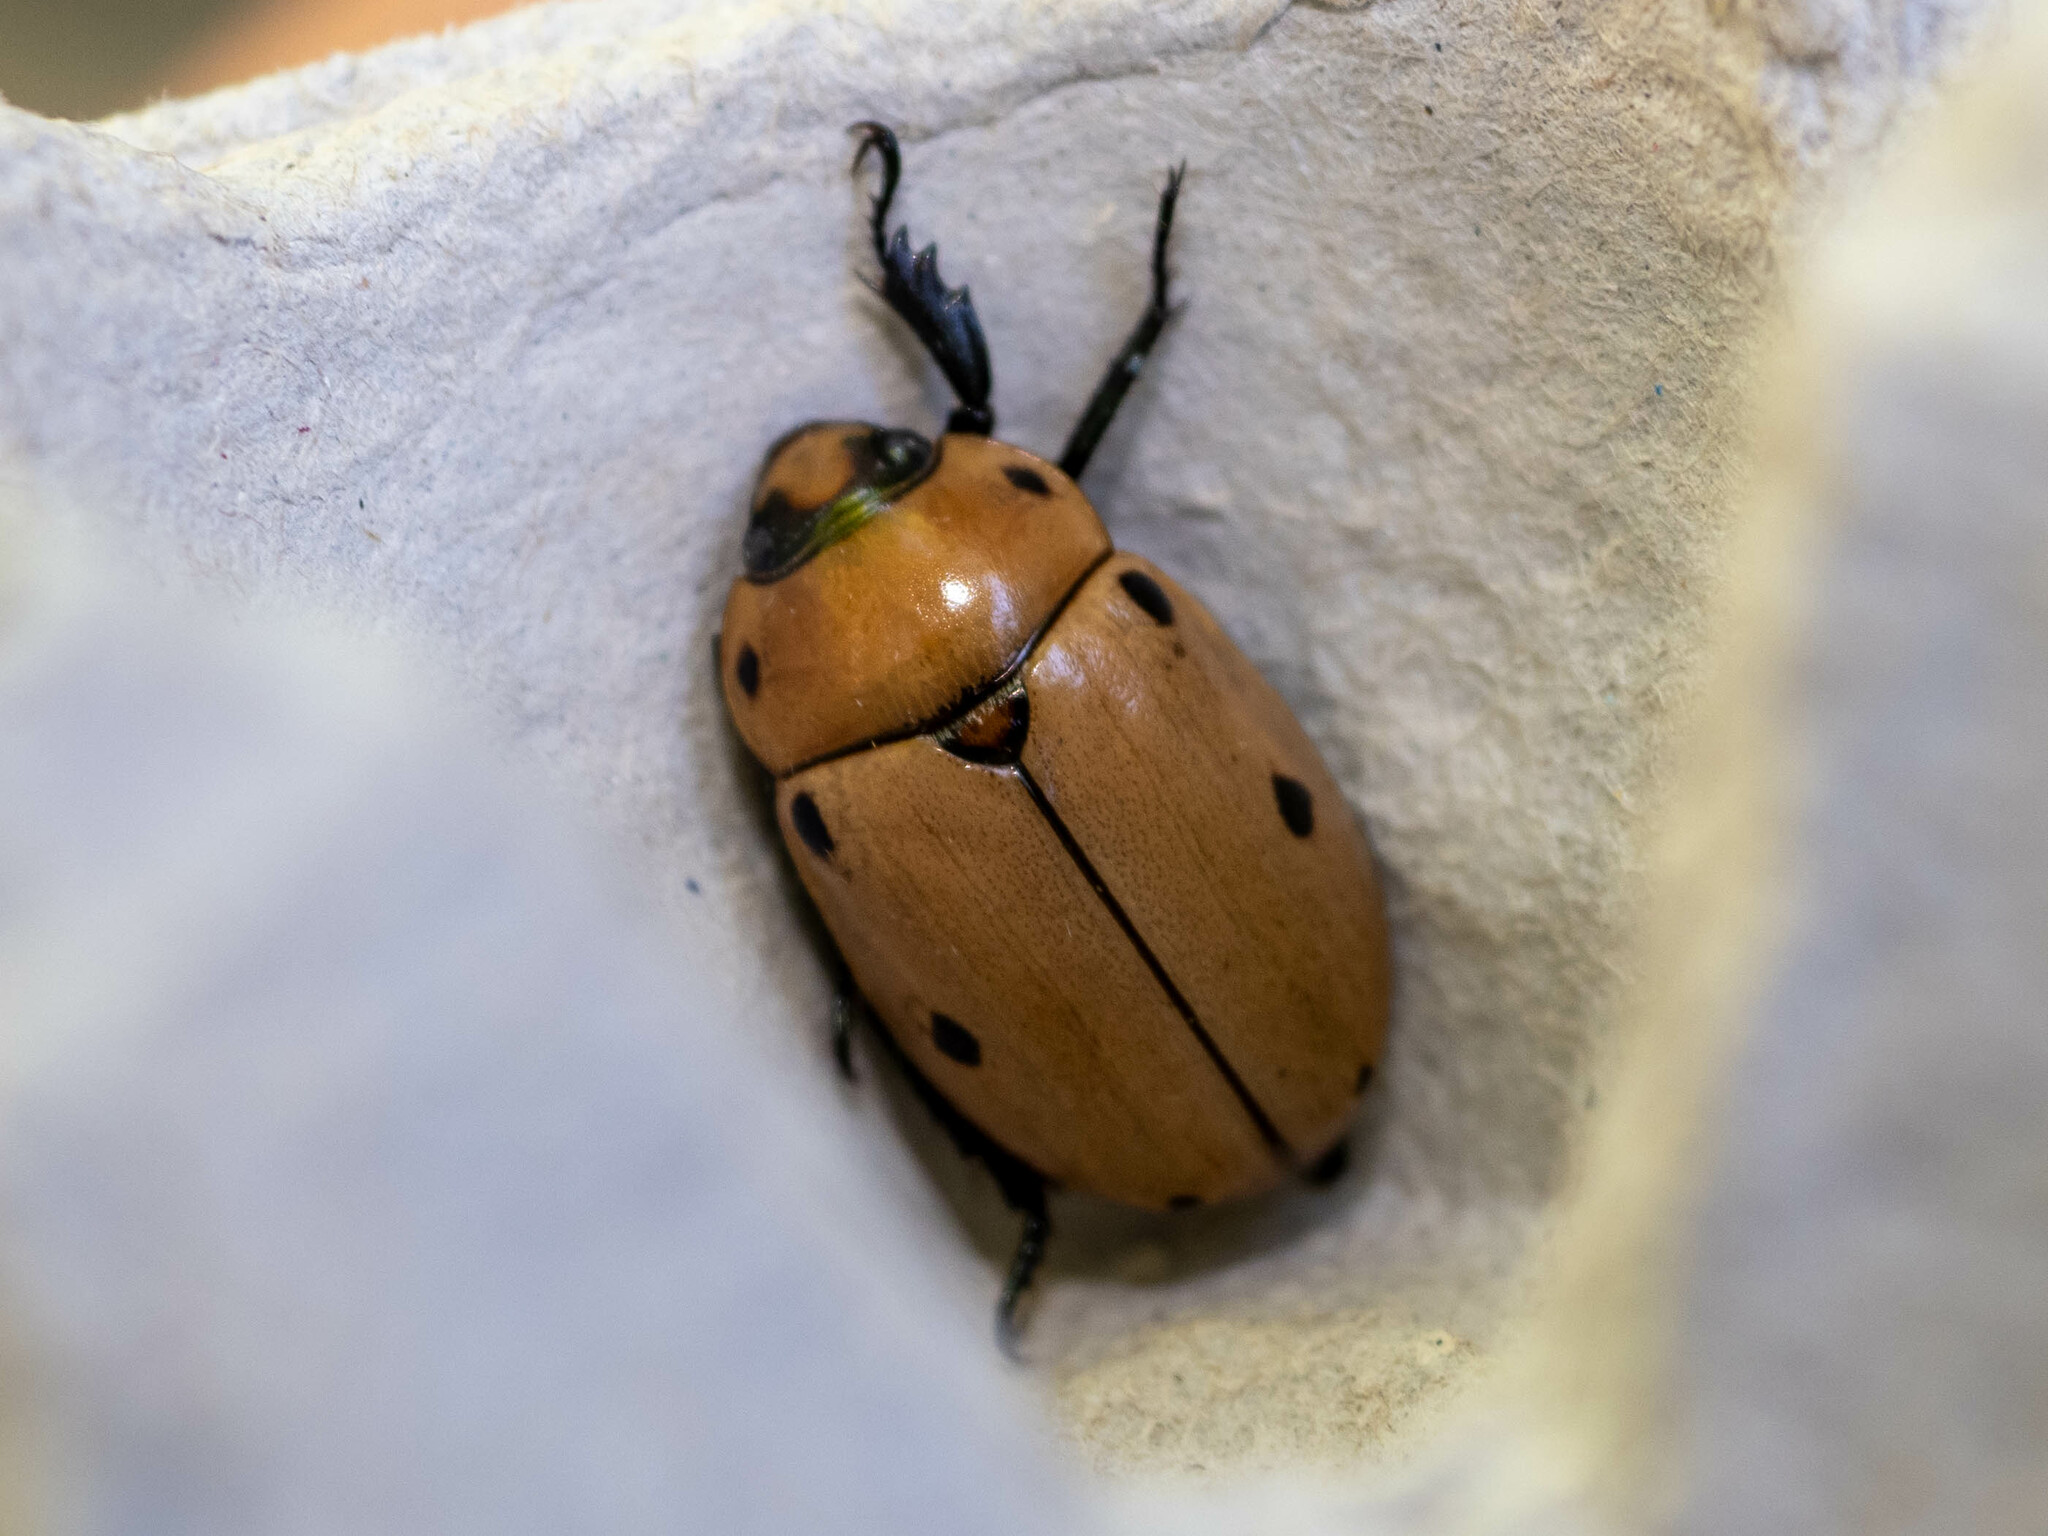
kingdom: Animalia
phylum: Arthropoda
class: Insecta
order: Coleoptera
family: Scarabaeidae
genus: Pelidnota
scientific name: Pelidnota punctata
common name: Grapevine beetle
